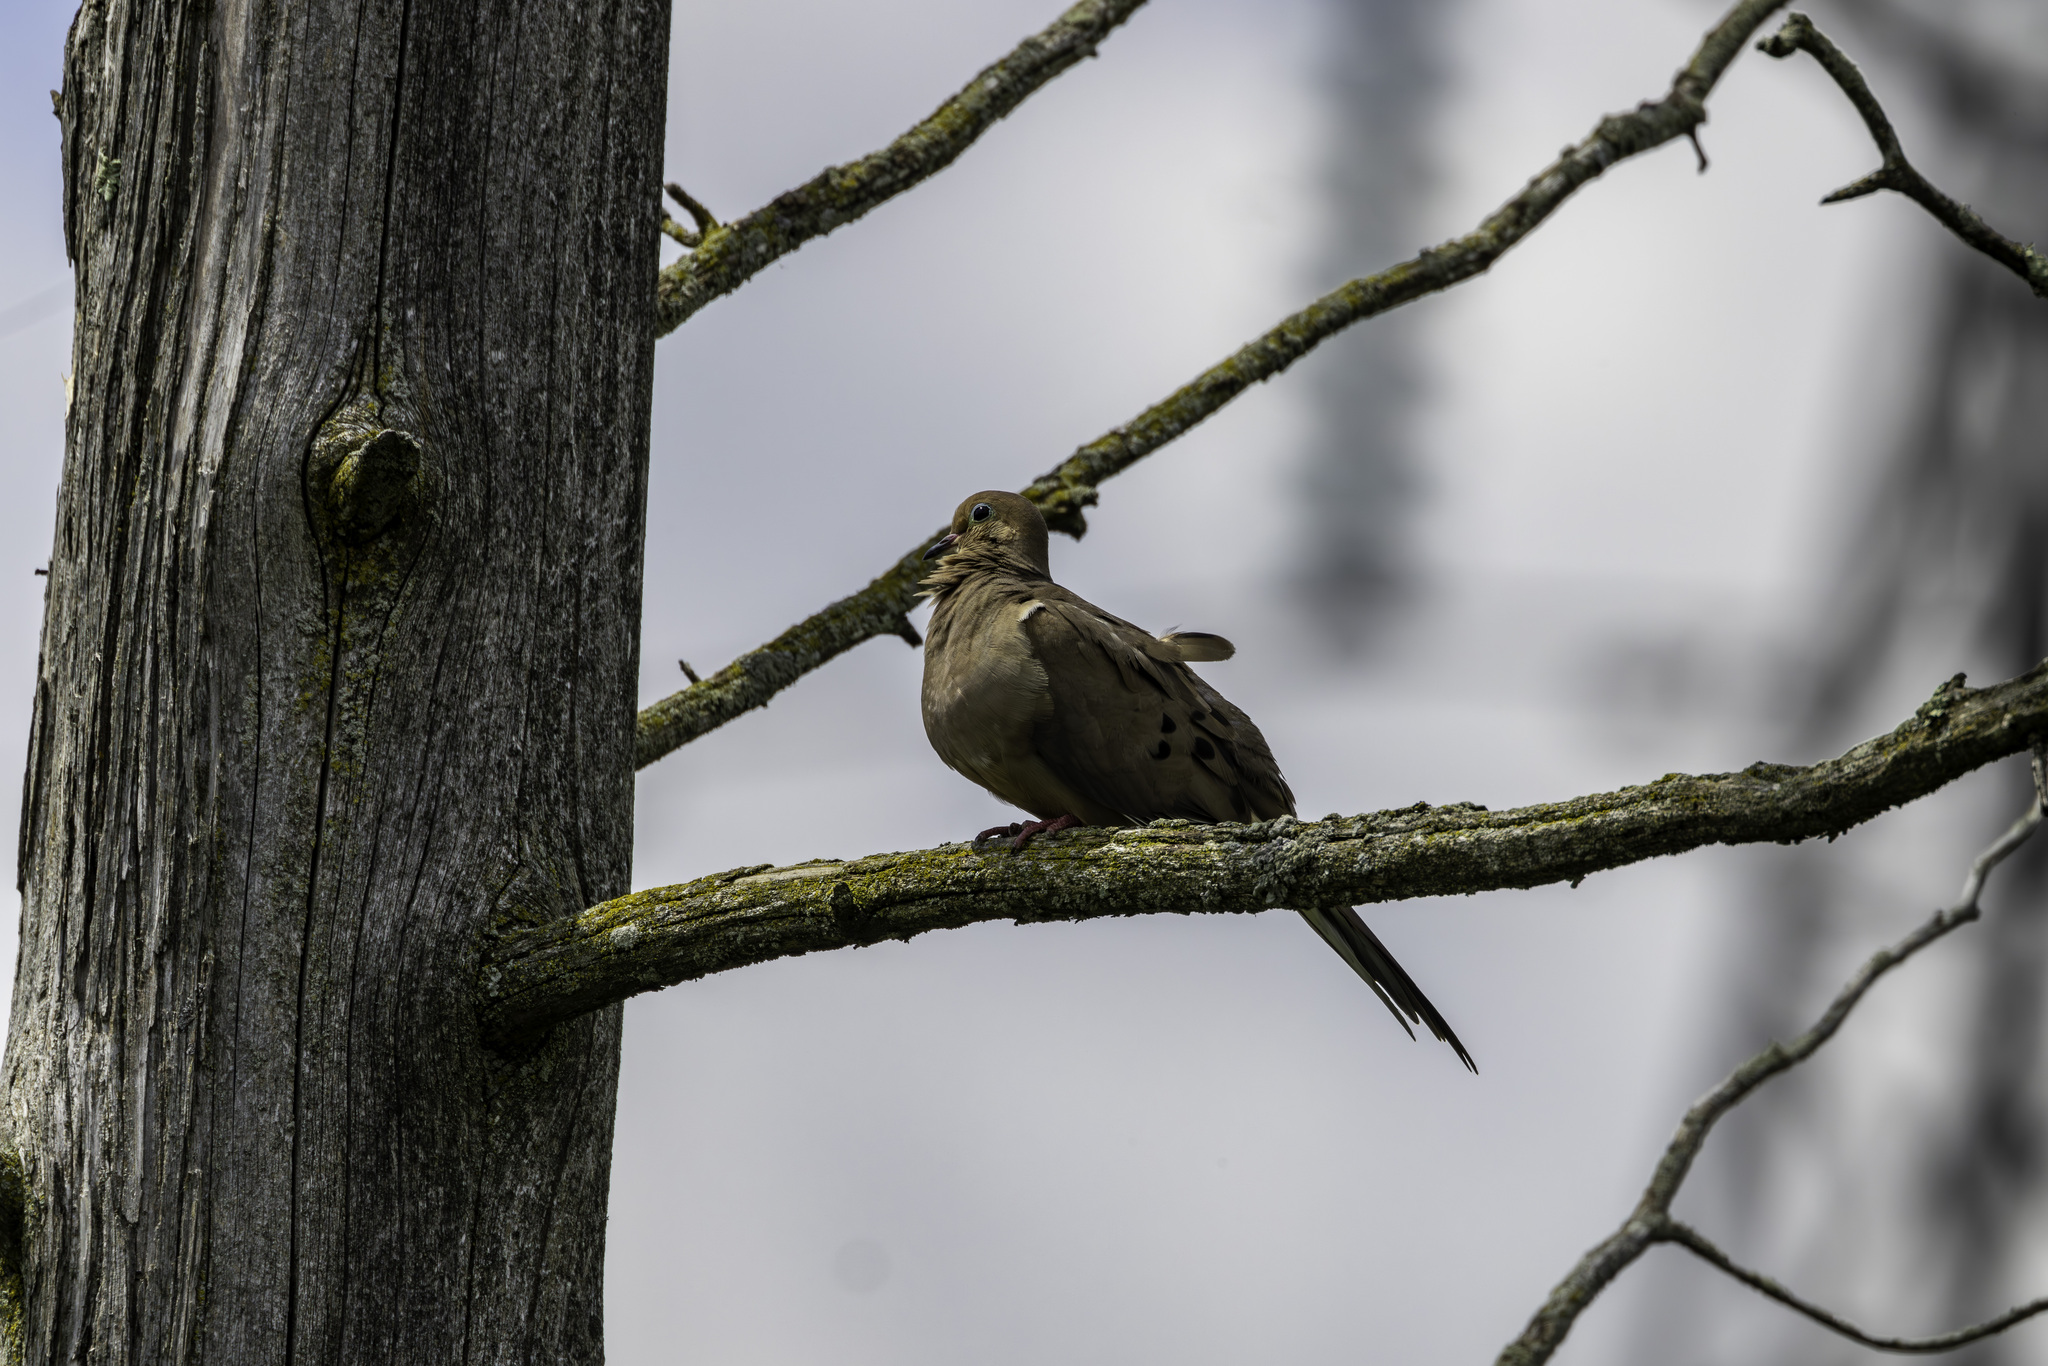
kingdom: Animalia
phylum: Chordata
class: Aves
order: Columbiformes
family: Columbidae
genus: Zenaida
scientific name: Zenaida macroura
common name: Mourning dove
